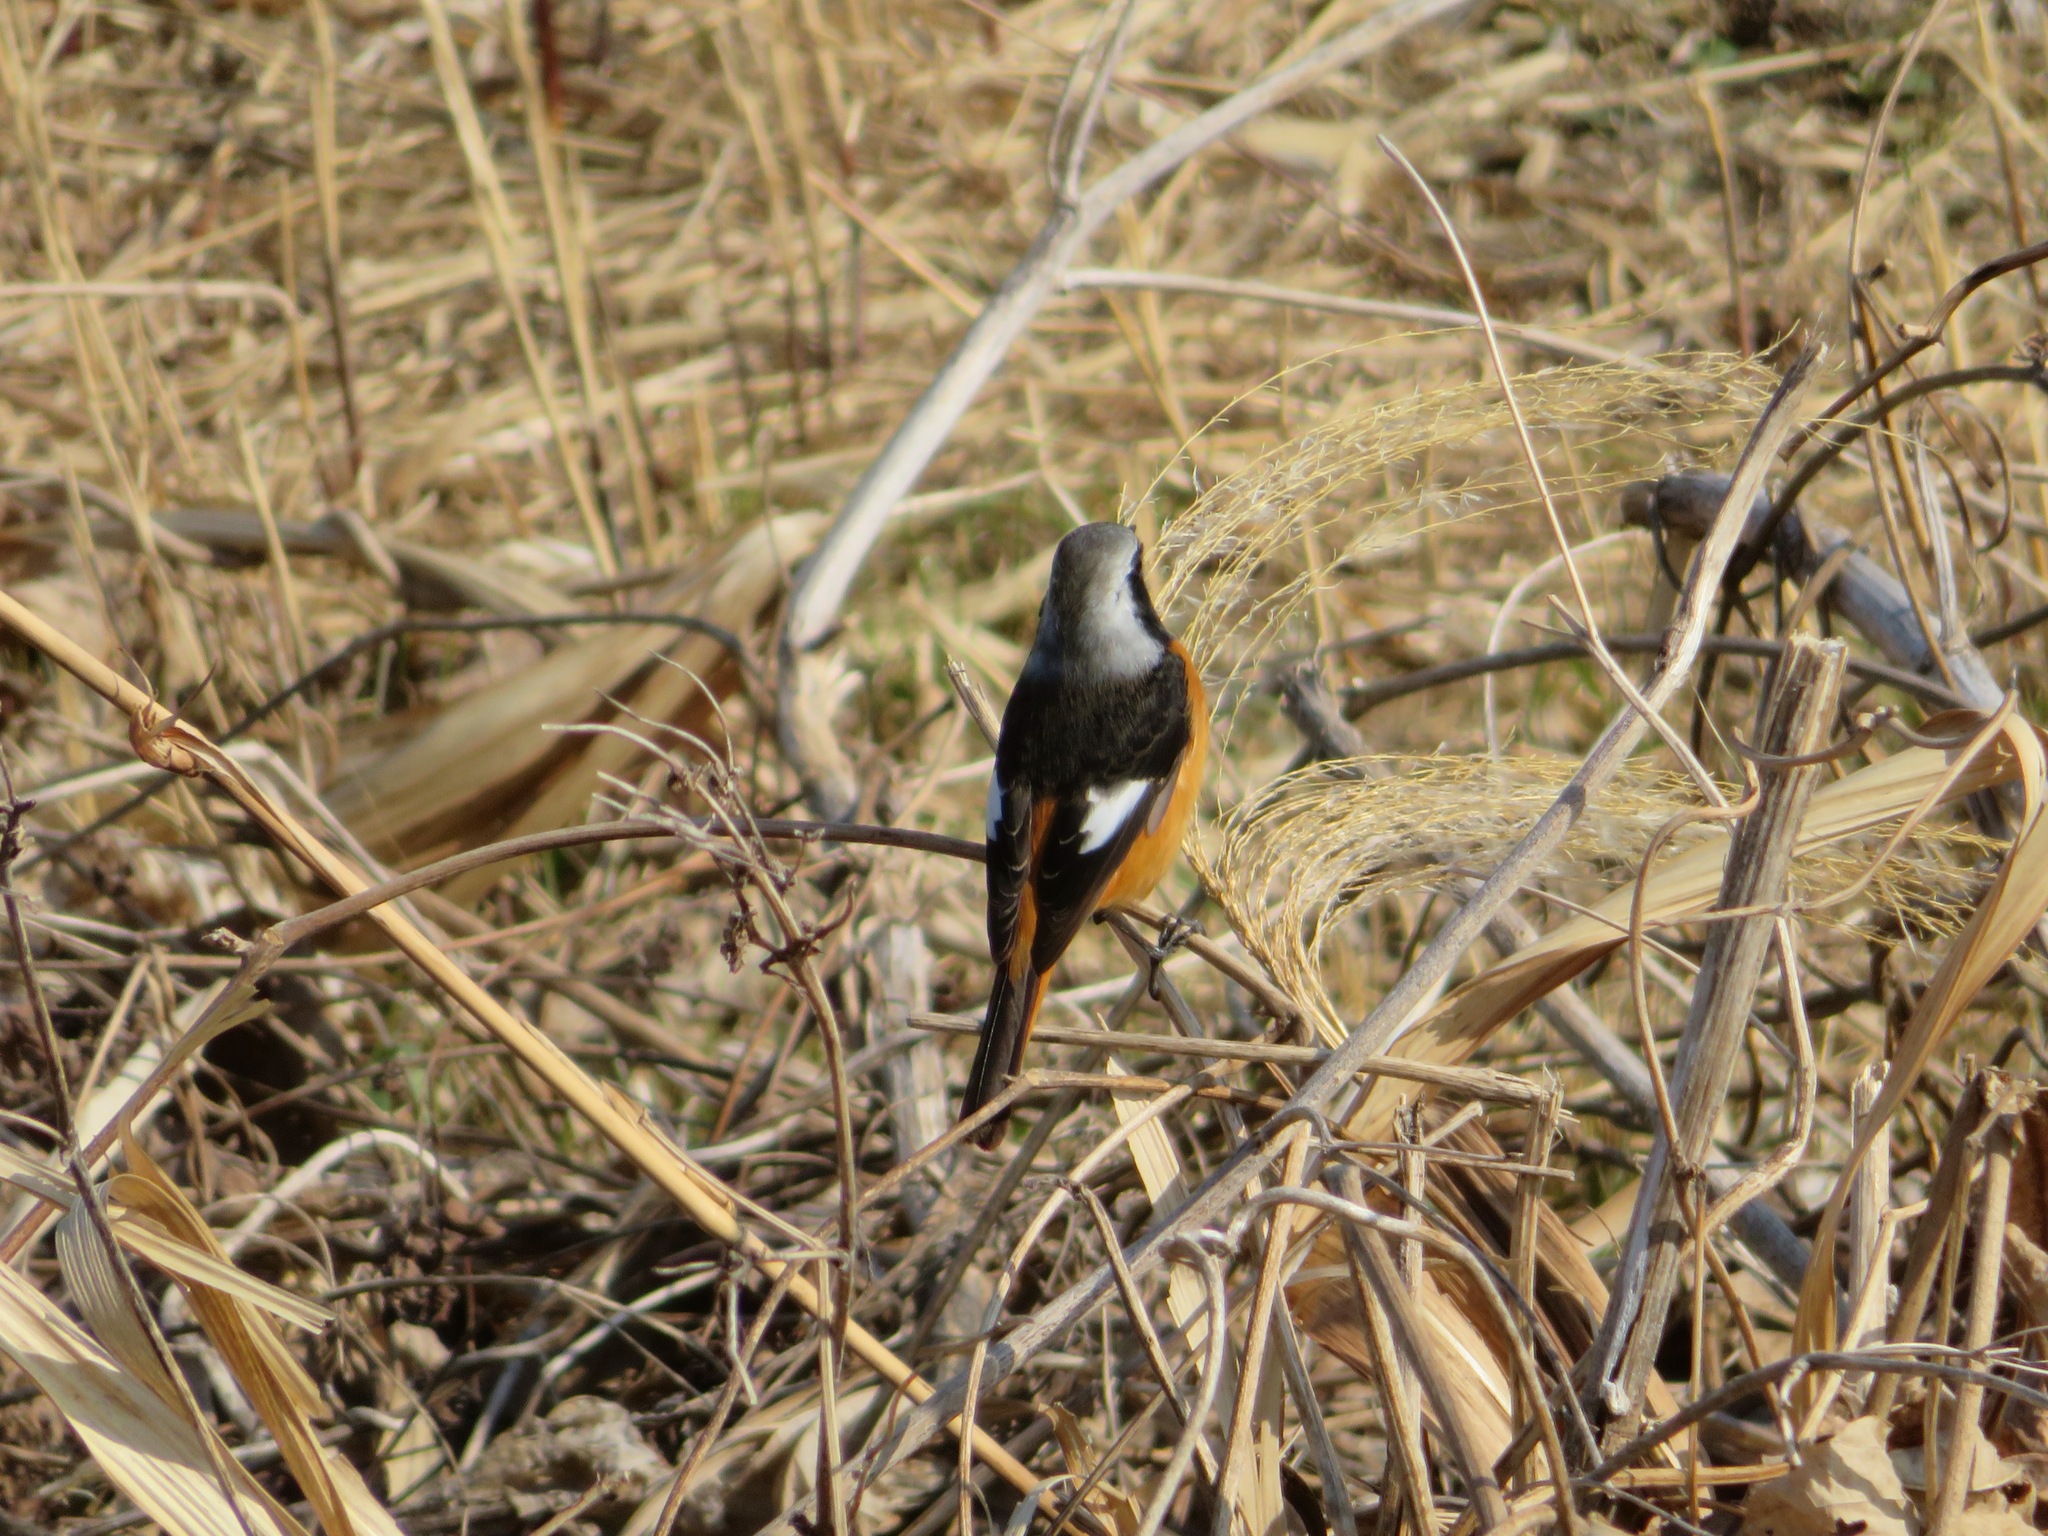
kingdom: Animalia
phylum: Chordata
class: Aves
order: Passeriformes
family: Muscicapidae
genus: Phoenicurus
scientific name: Phoenicurus auroreus
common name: Daurian redstart
